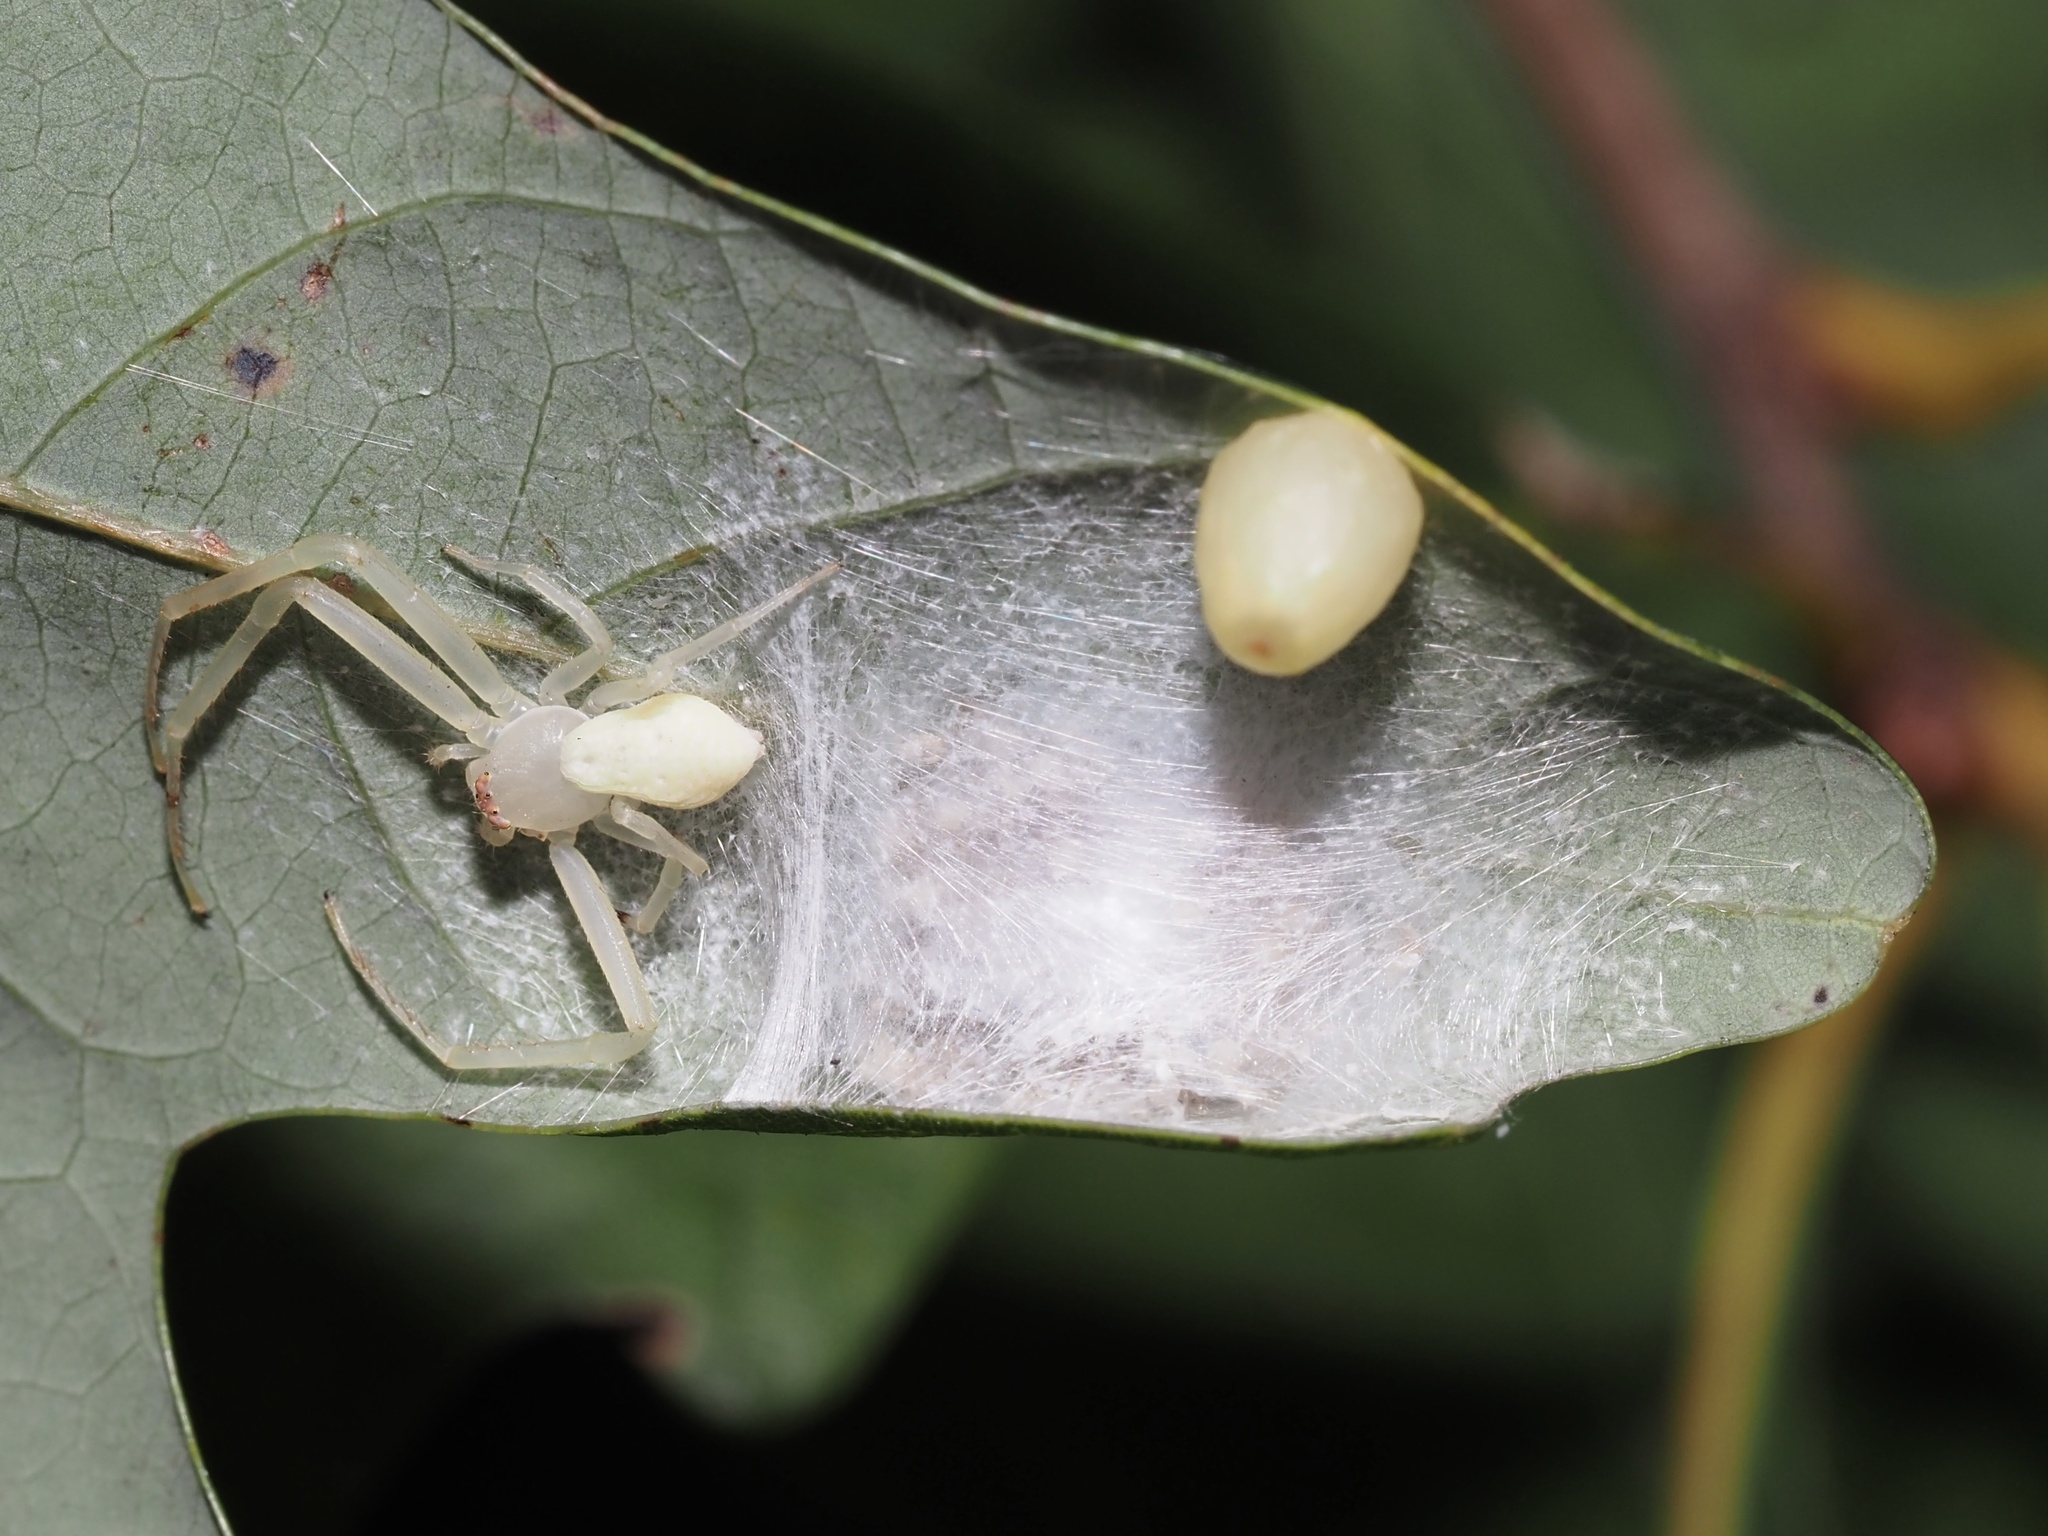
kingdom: Animalia
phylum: Arthropoda
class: Insecta
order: Hymenoptera
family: Cynipidae
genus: Andricus
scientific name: Andricus
